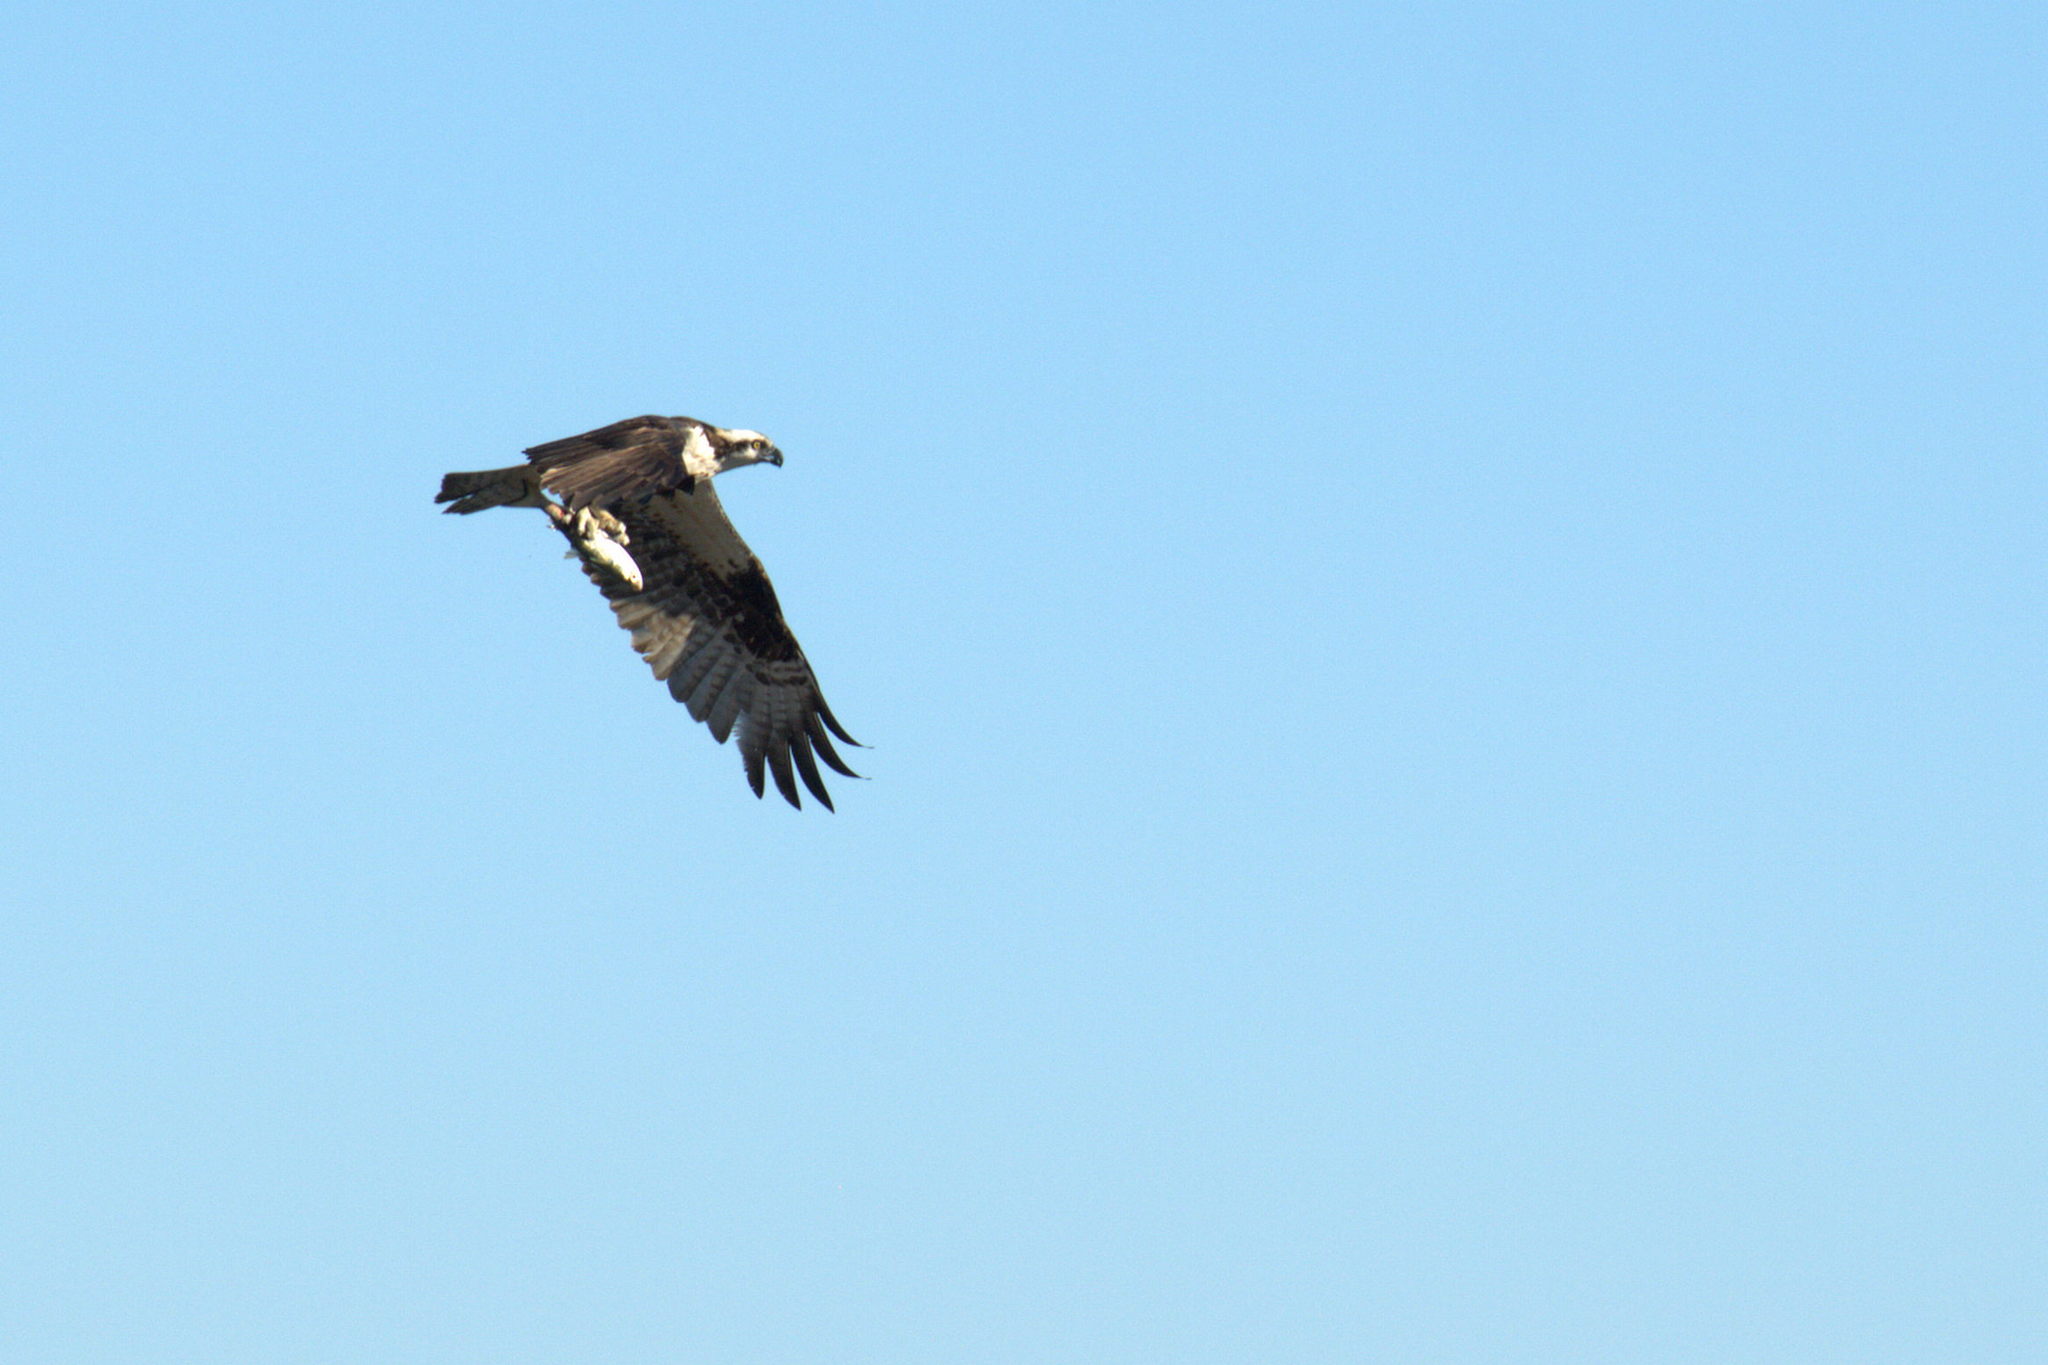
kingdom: Animalia
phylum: Chordata
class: Aves
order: Accipitriformes
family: Pandionidae
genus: Pandion
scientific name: Pandion haliaetus
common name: Osprey
